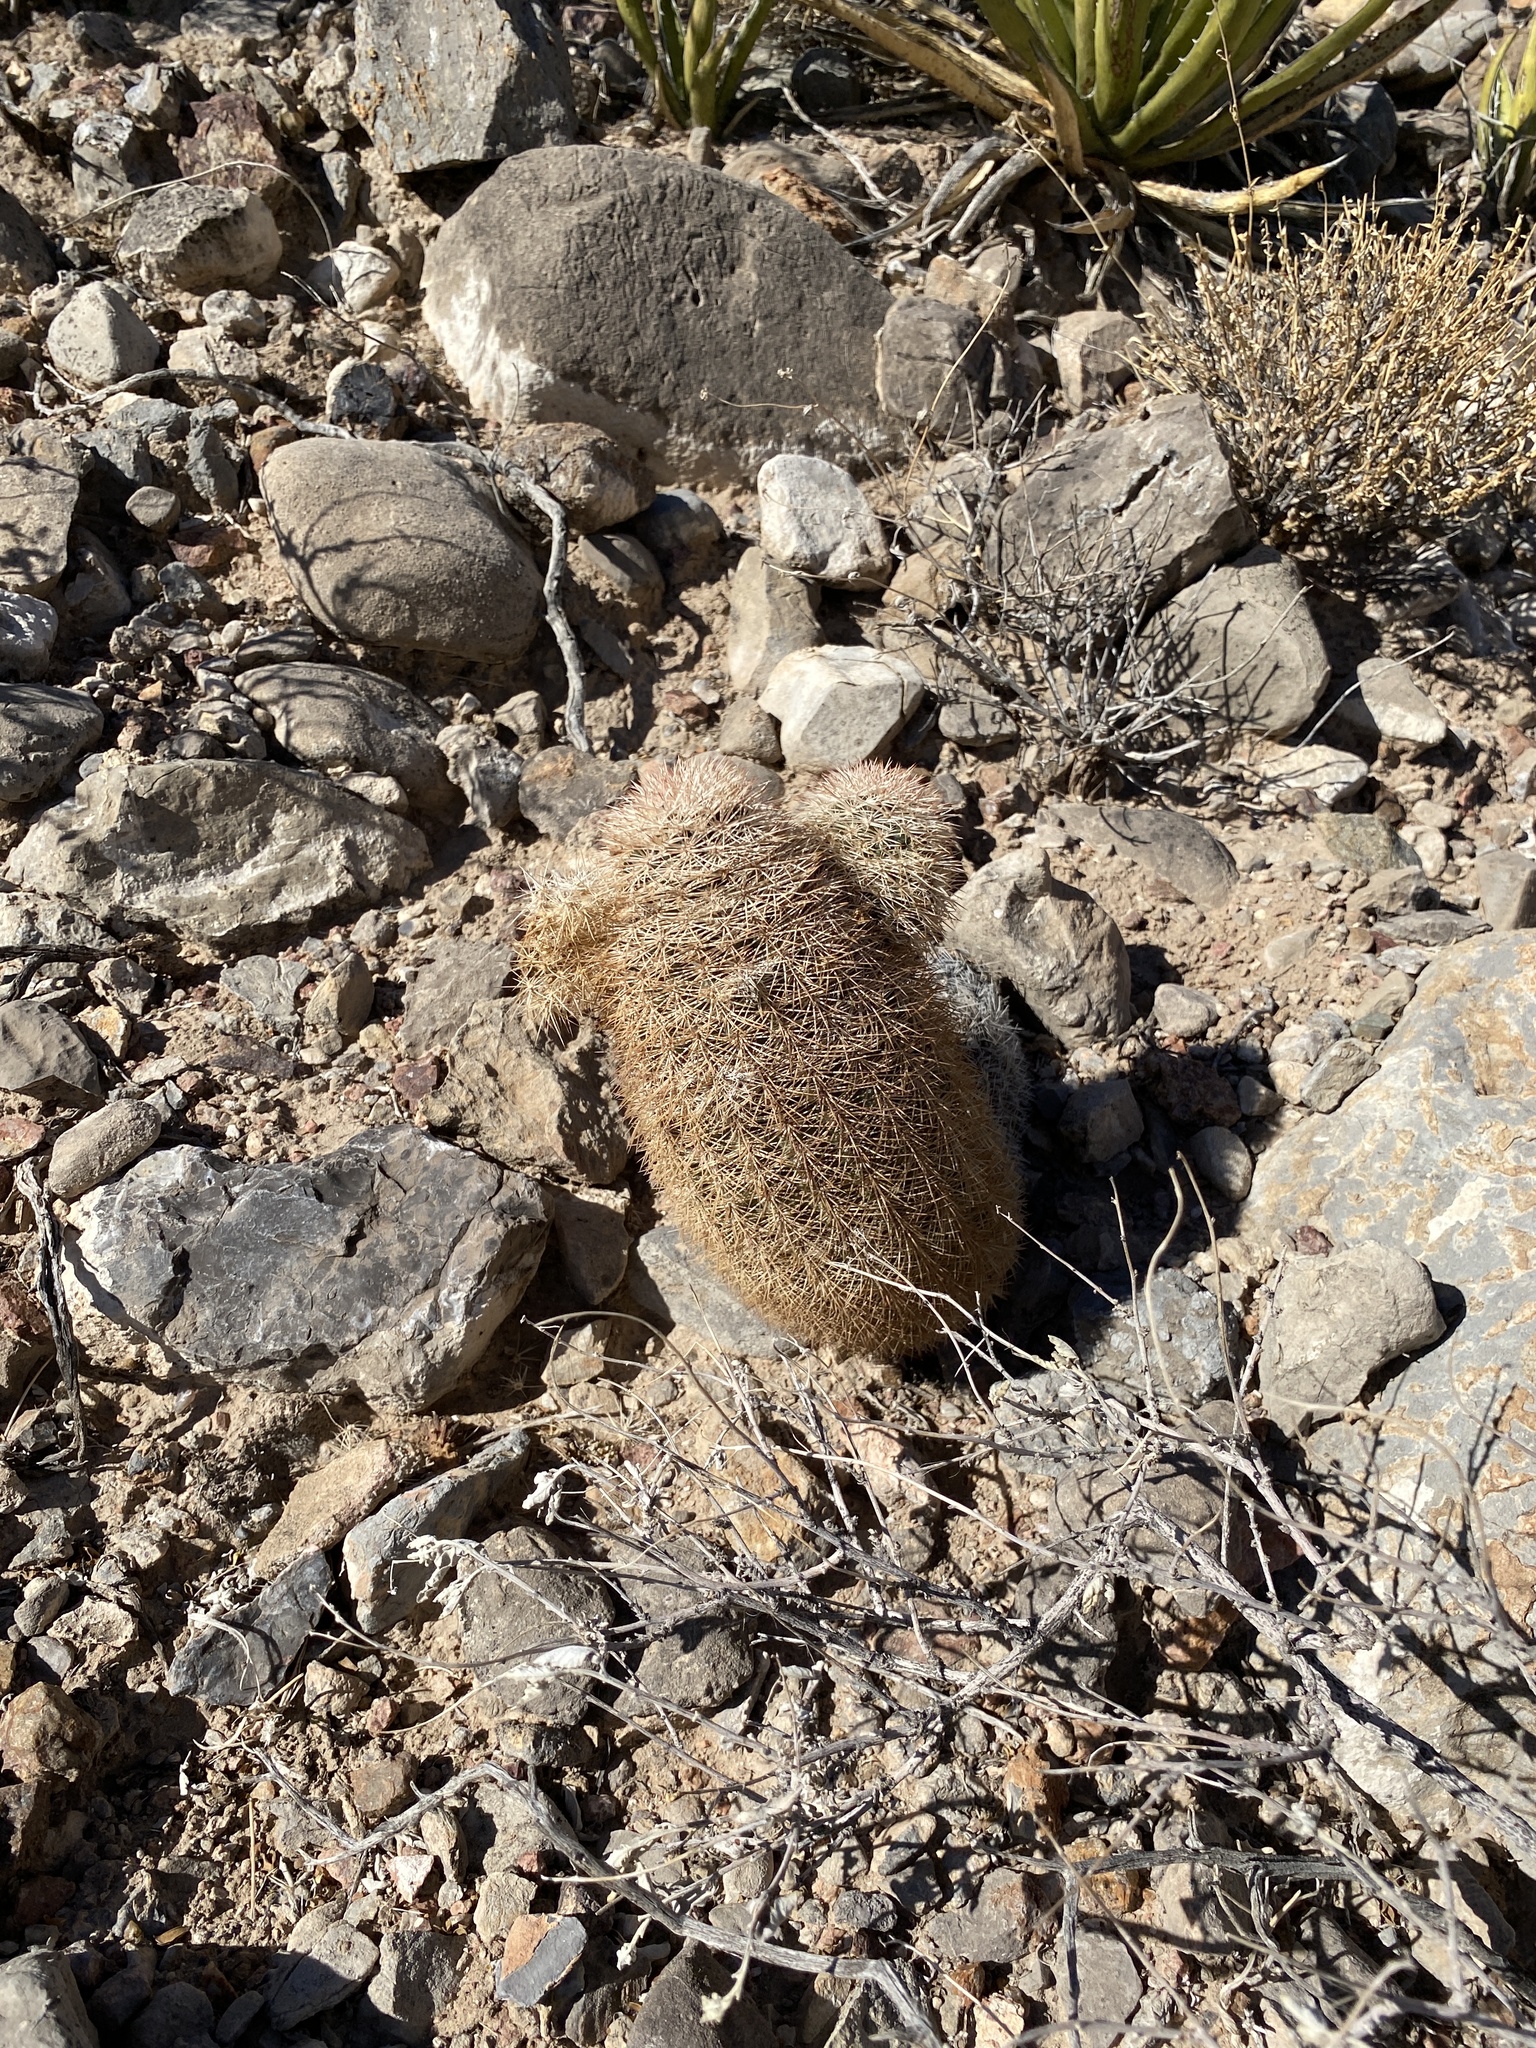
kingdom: Plantae
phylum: Tracheophyta
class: Magnoliopsida
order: Caryophyllales
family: Cactaceae
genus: Echinocereus
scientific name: Echinocereus dasyacanthus
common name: Spiny hedgehog cactus
